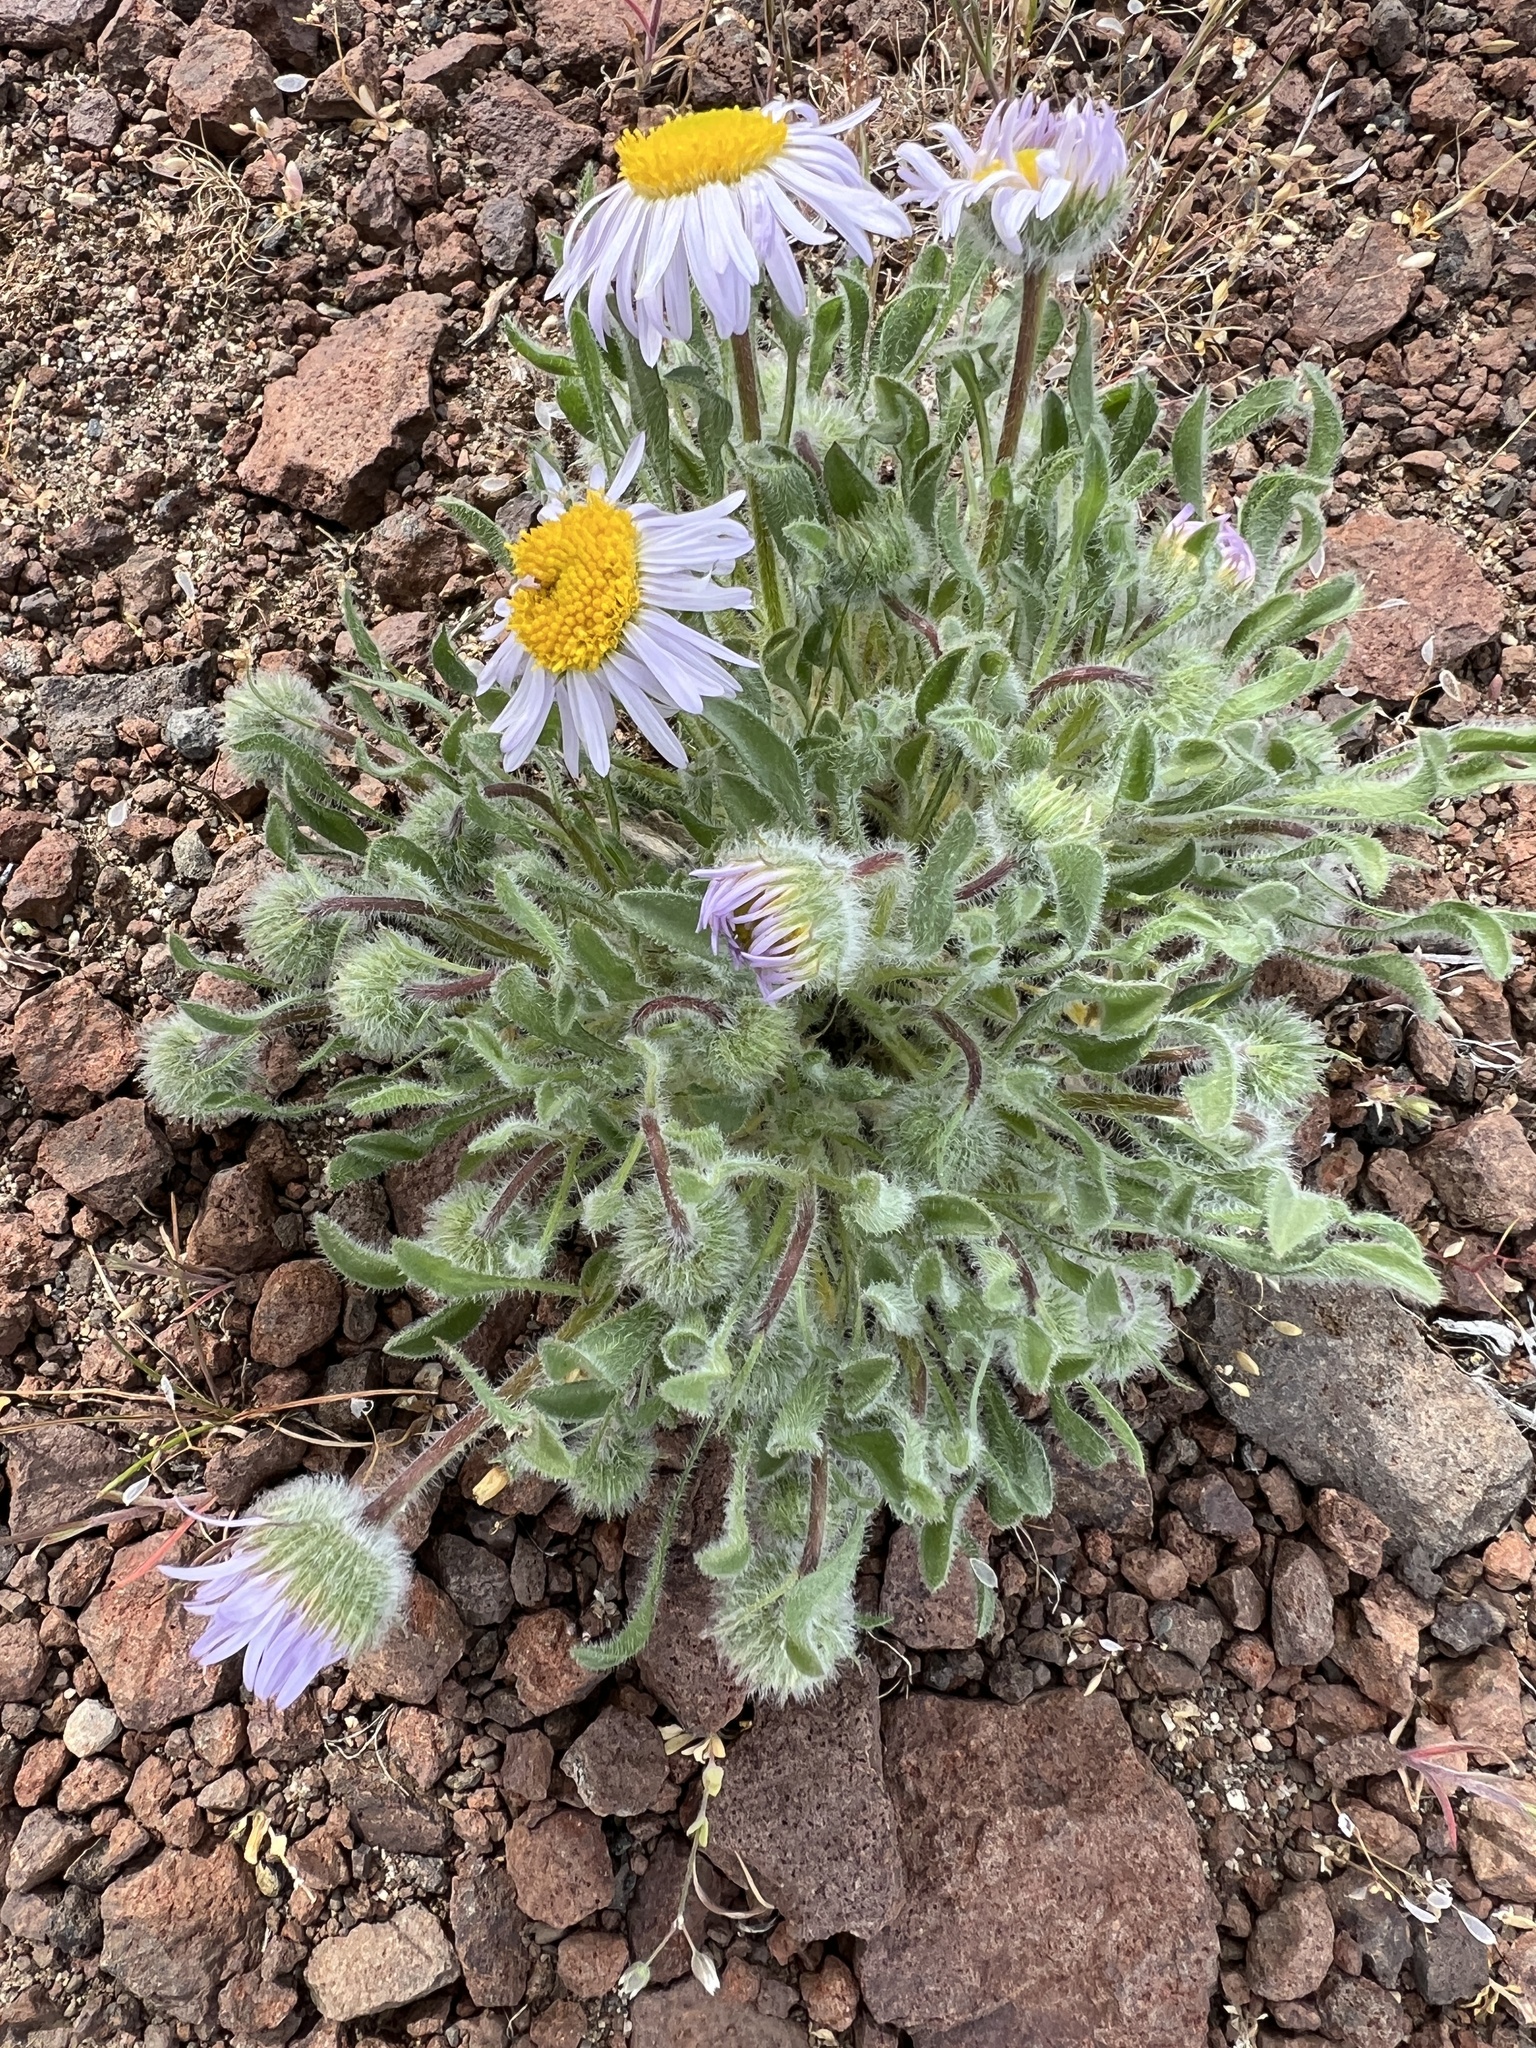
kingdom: Plantae
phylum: Tracheophyta
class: Magnoliopsida
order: Asterales
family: Asteraceae
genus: Erigeron
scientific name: Erigeron poliospermus
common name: Cushion fleabane
